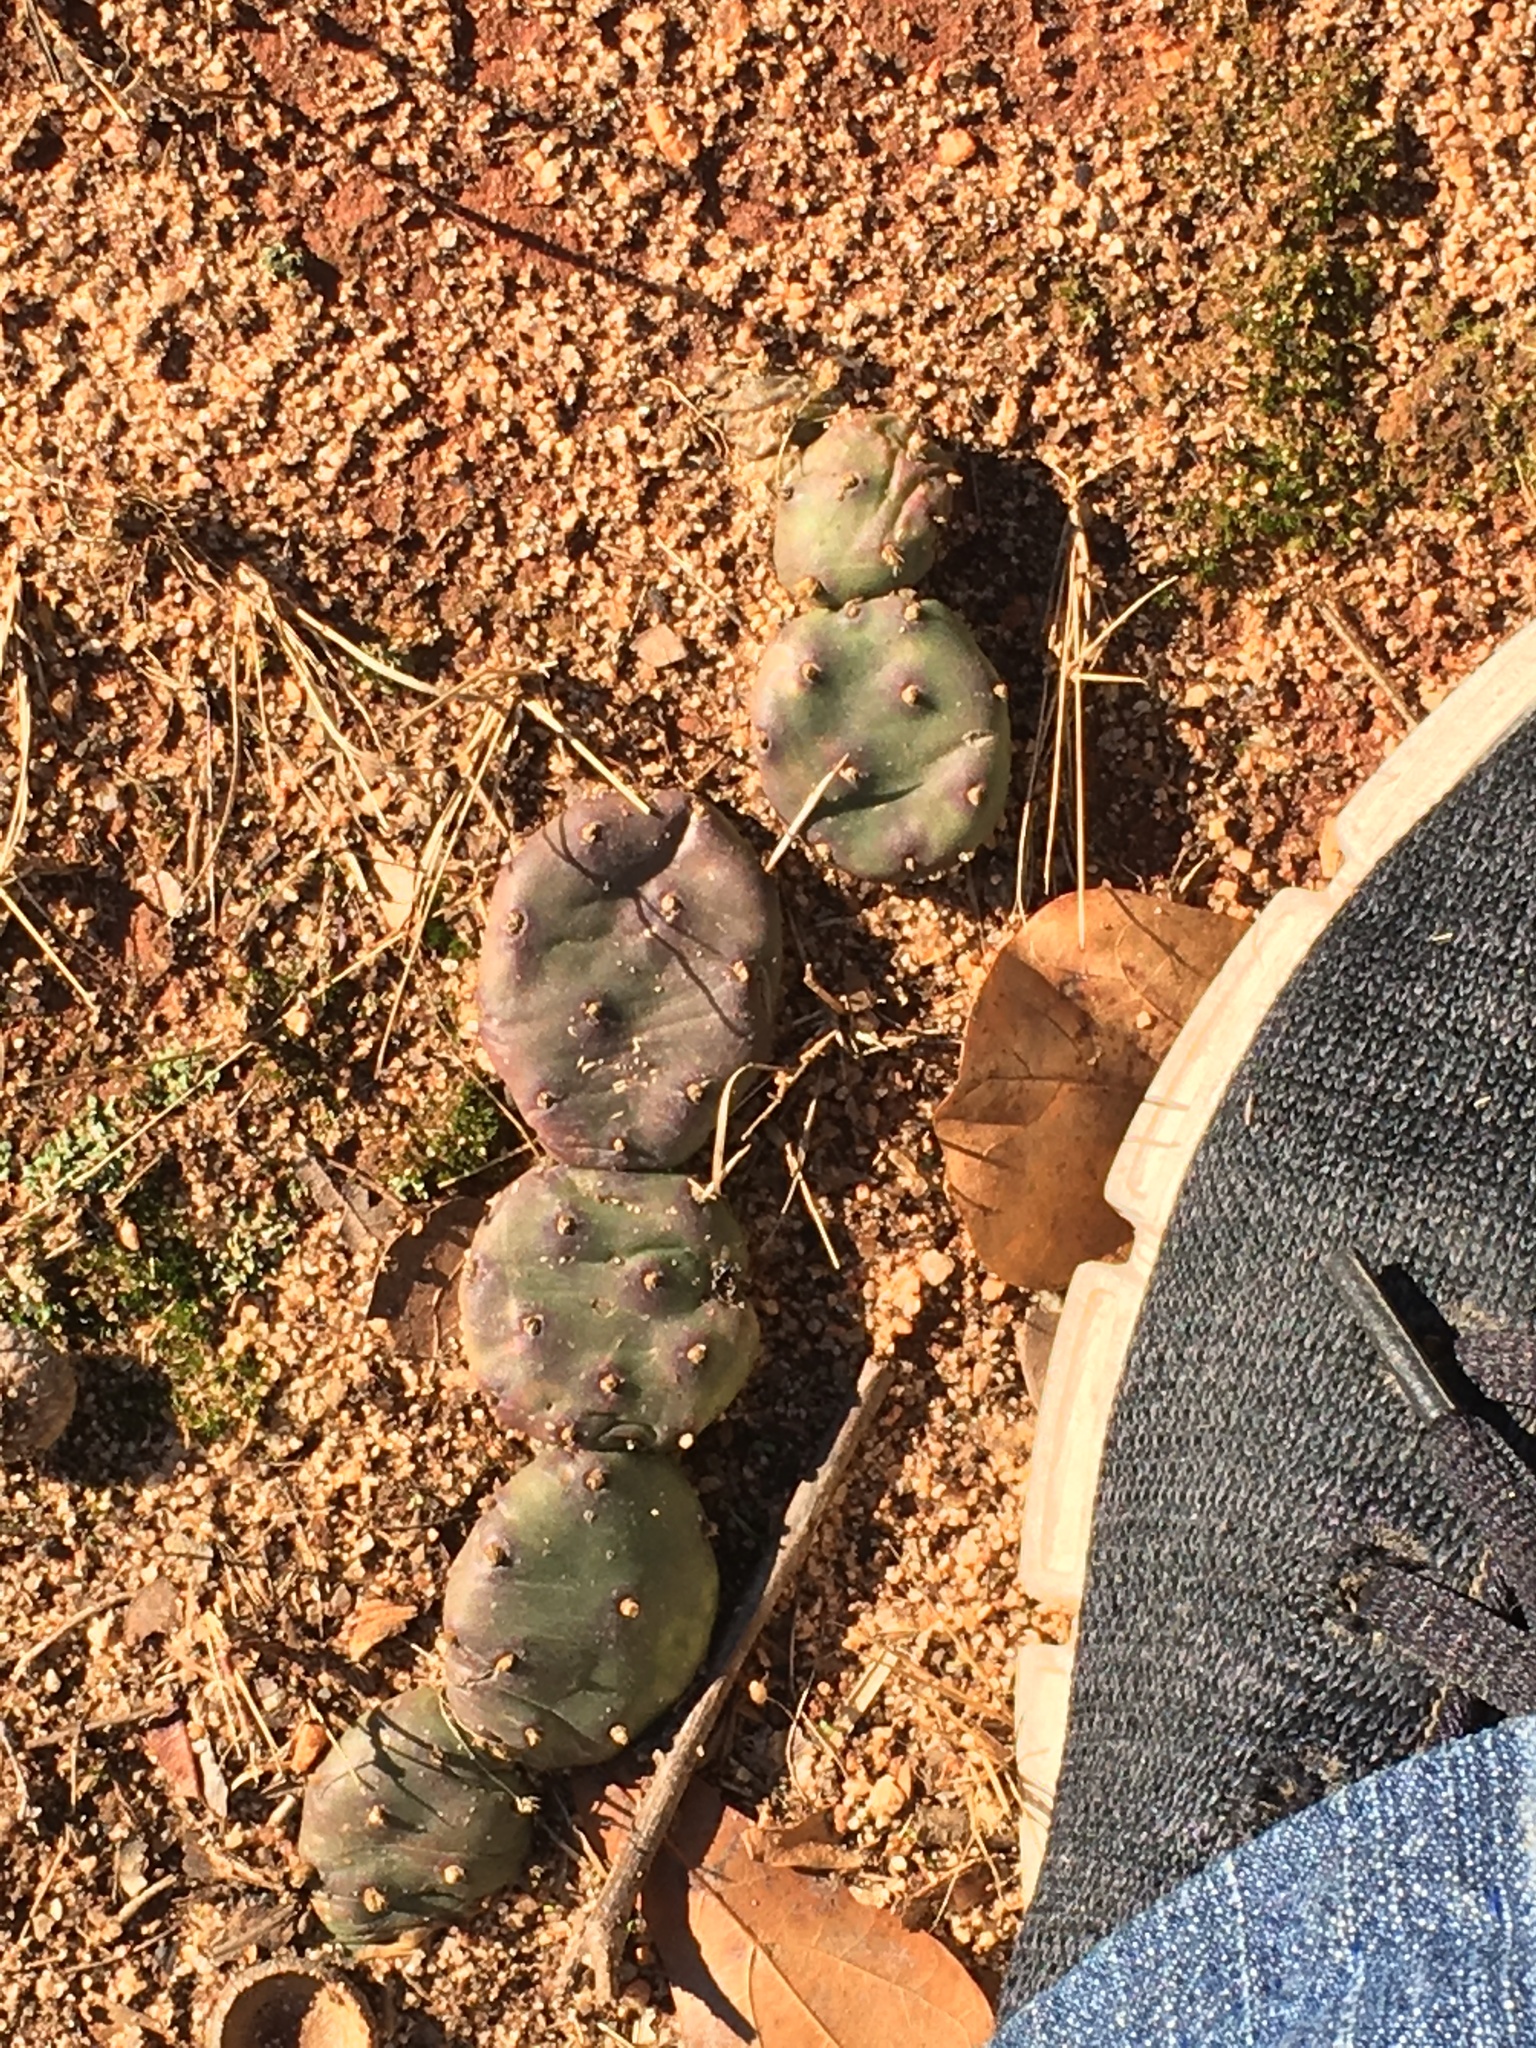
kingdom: Plantae
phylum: Tracheophyta
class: Magnoliopsida
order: Caryophyllales
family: Cactaceae
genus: Opuntia
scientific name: Opuntia mesacantha
